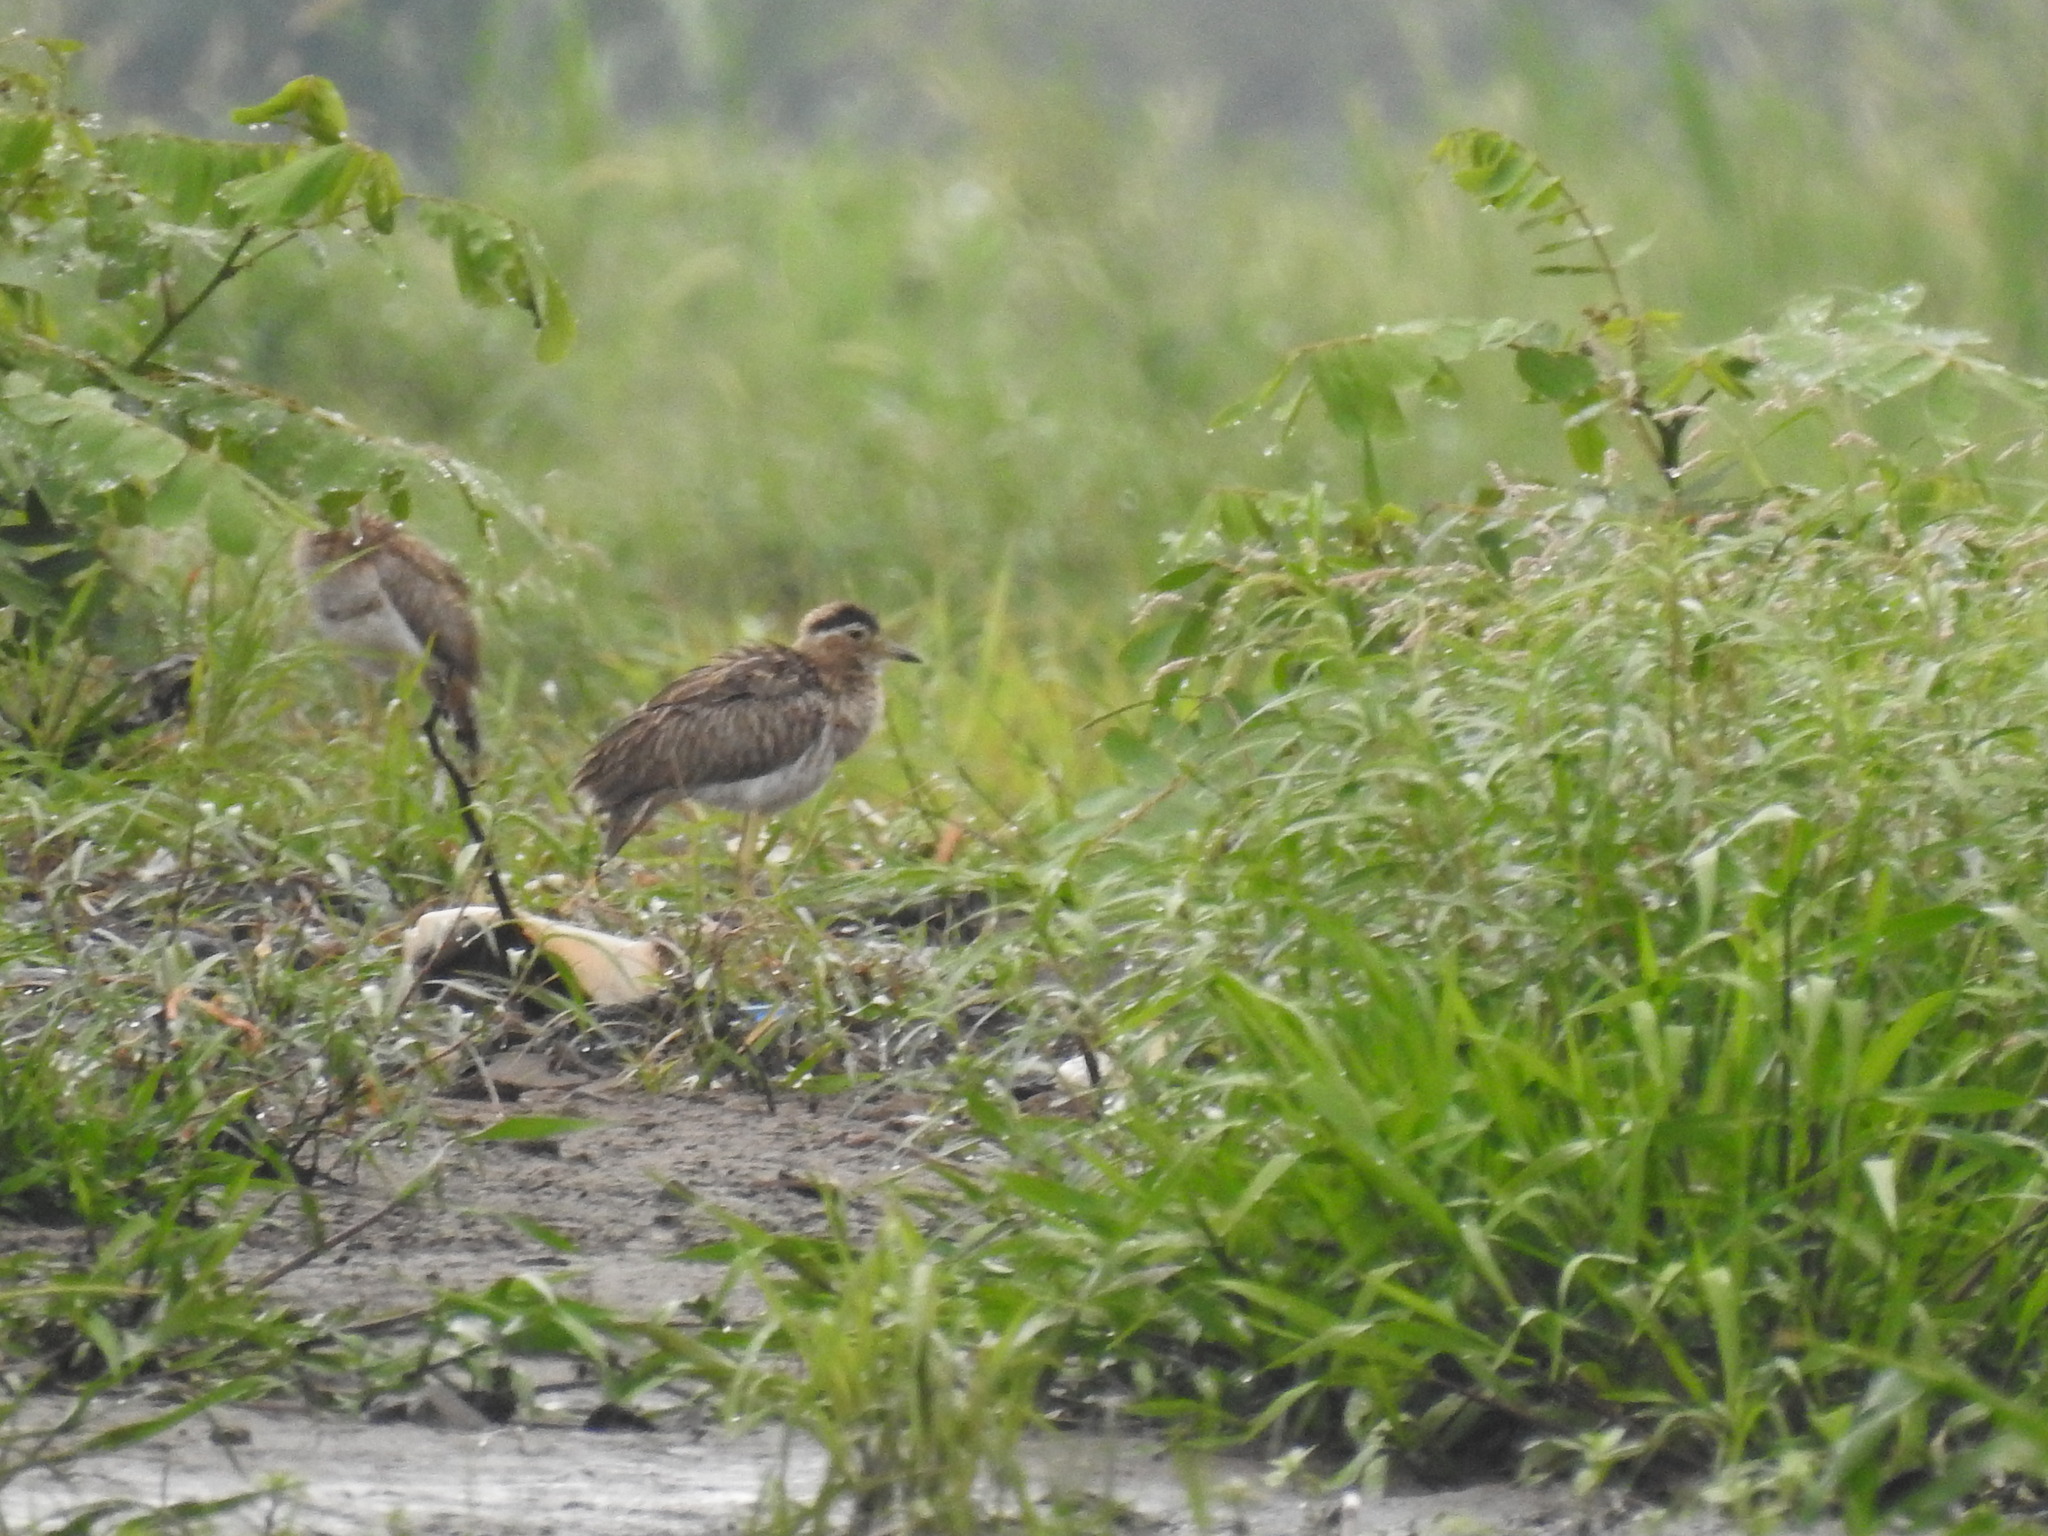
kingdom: Animalia
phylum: Chordata
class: Aves
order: Charadriiformes
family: Burhinidae
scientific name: Burhinidae
